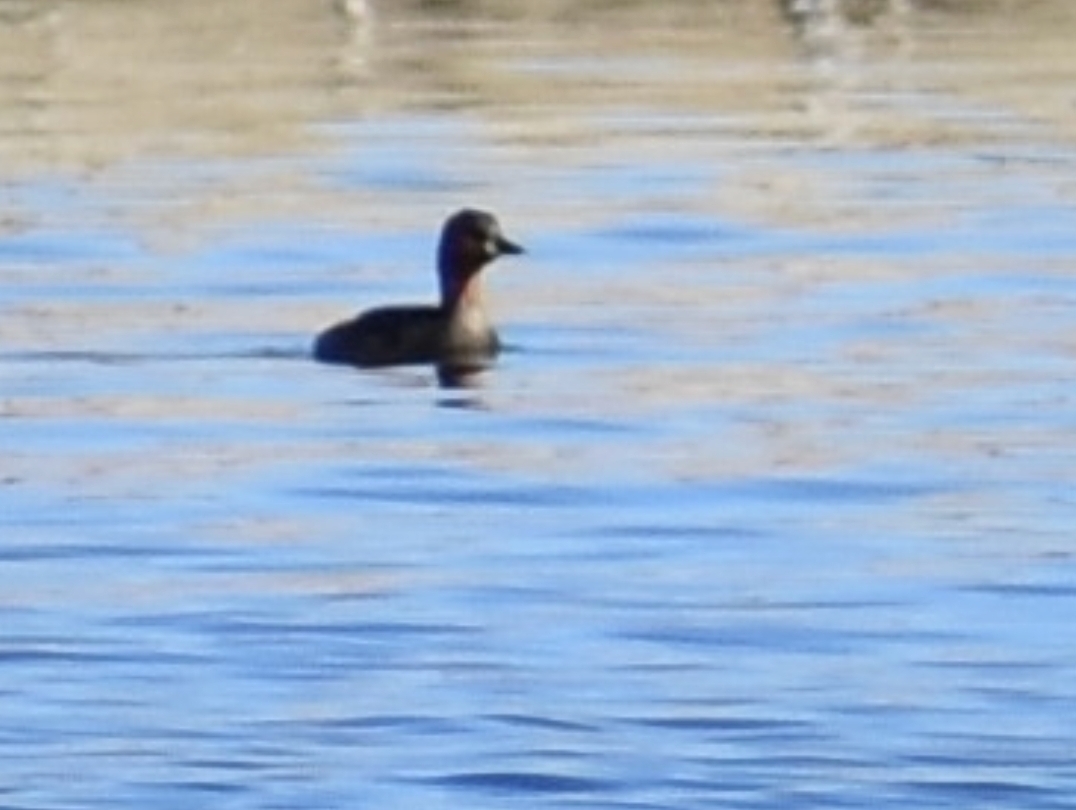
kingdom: Animalia
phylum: Chordata
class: Aves
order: Podicipediformes
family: Podicipedidae
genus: Tachybaptus
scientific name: Tachybaptus ruficollis
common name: Little grebe
